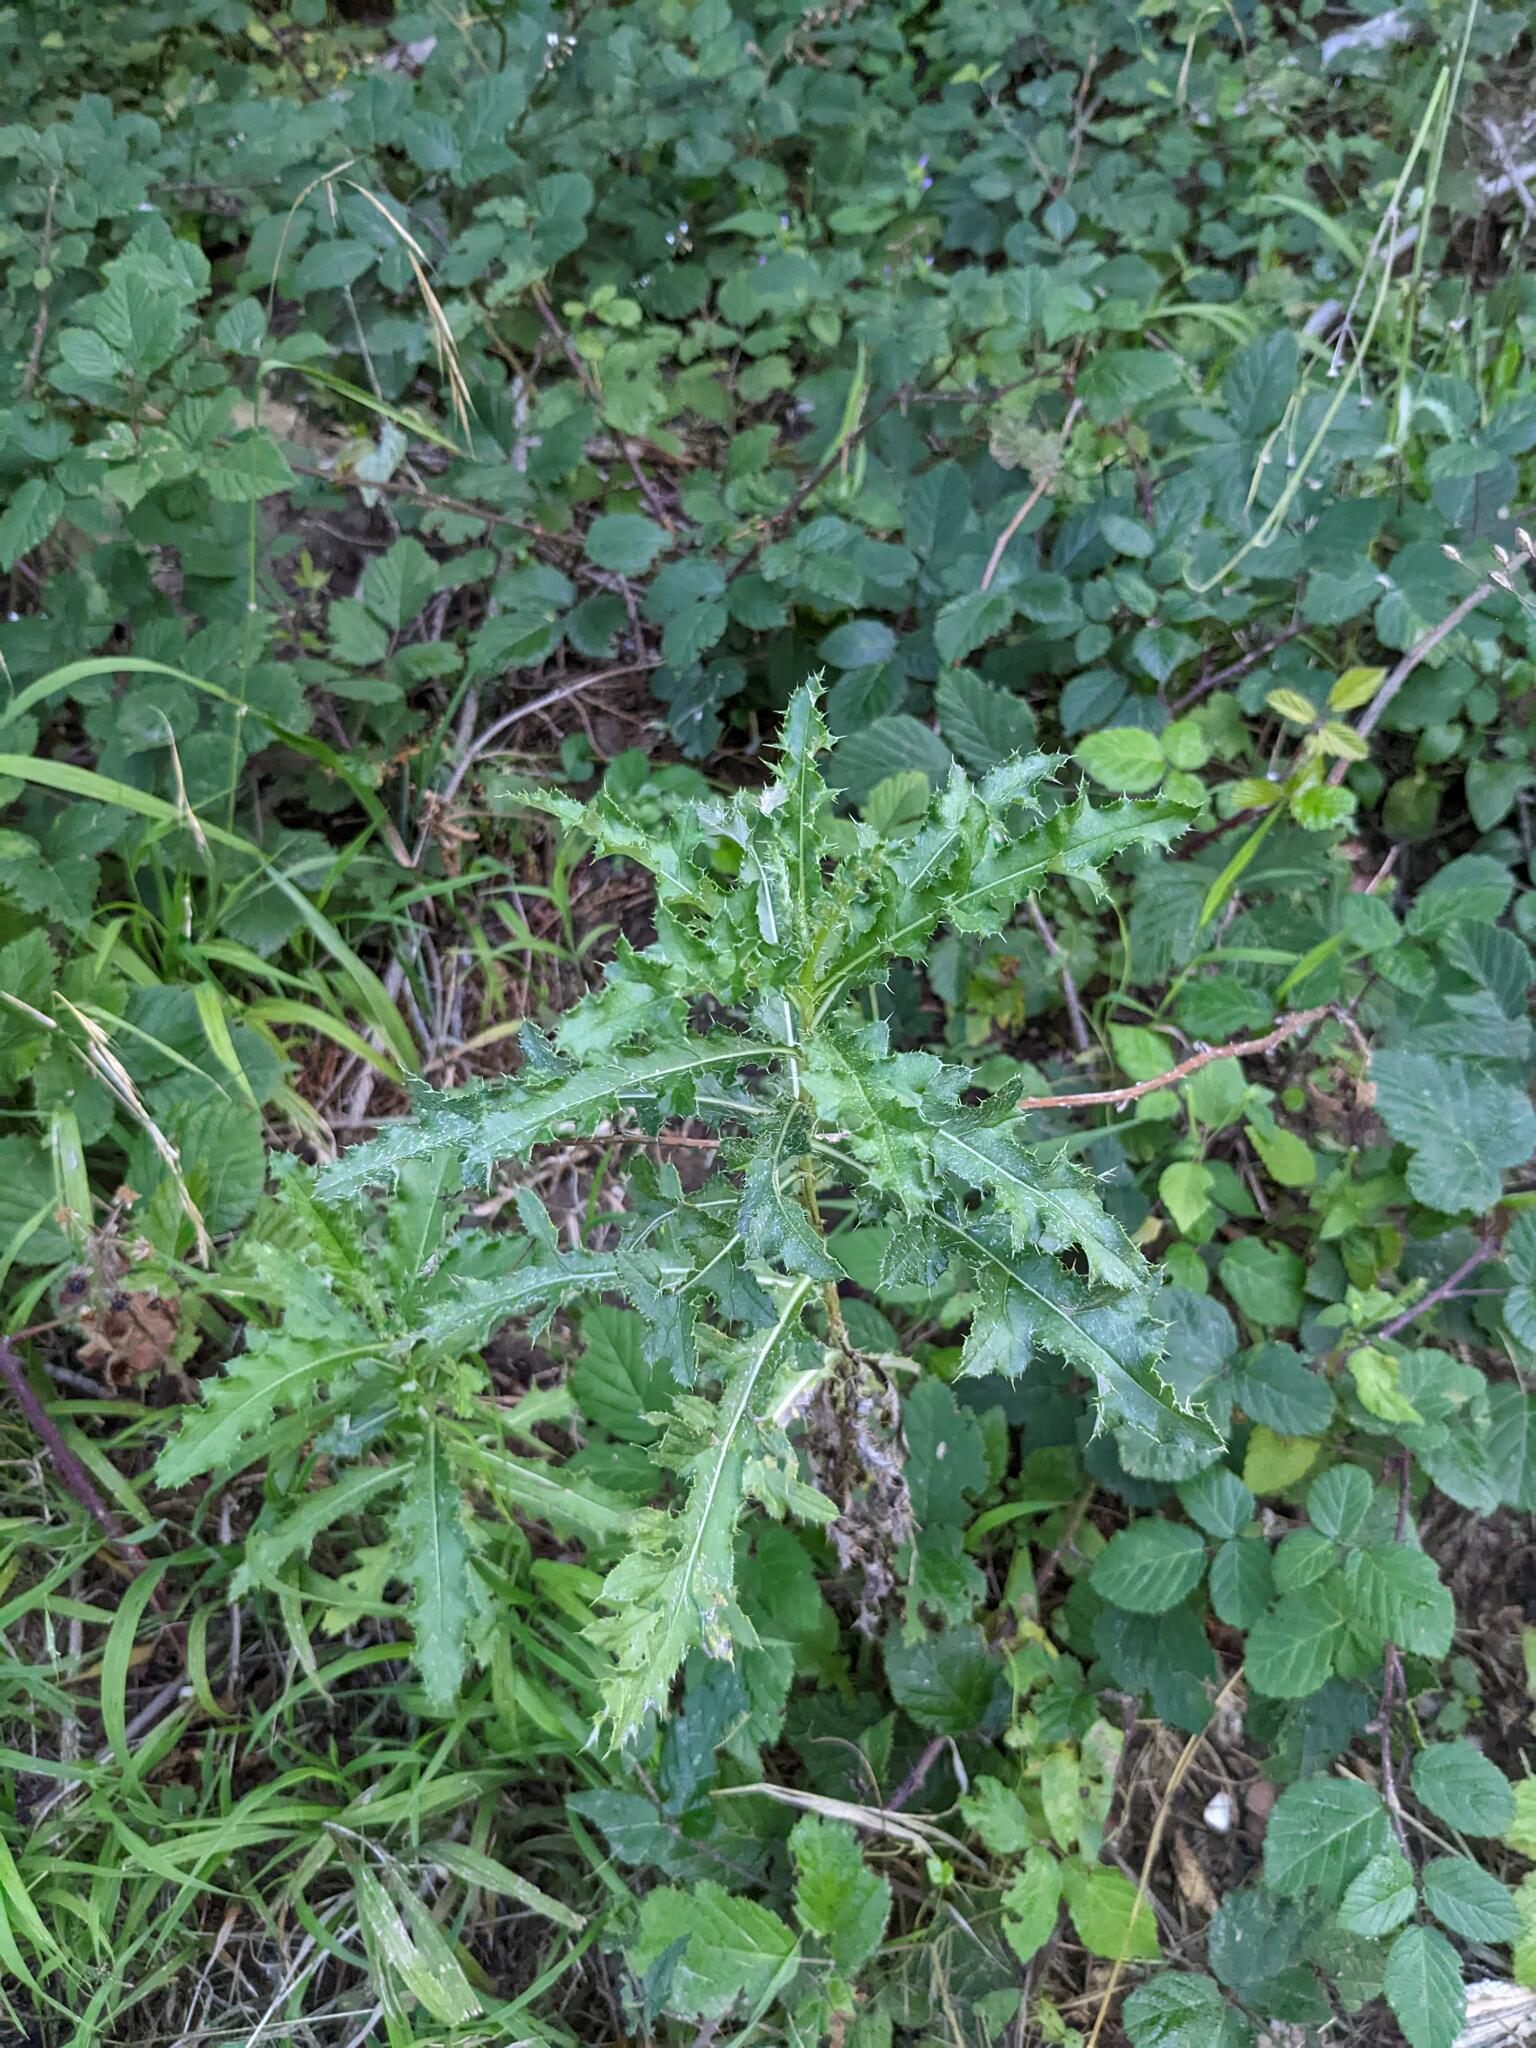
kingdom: Plantae
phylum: Tracheophyta
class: Magnoliopsida
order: Asterales
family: Asteraceae
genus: Cirsium
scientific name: Cirsium arvense
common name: Creeping thistle
